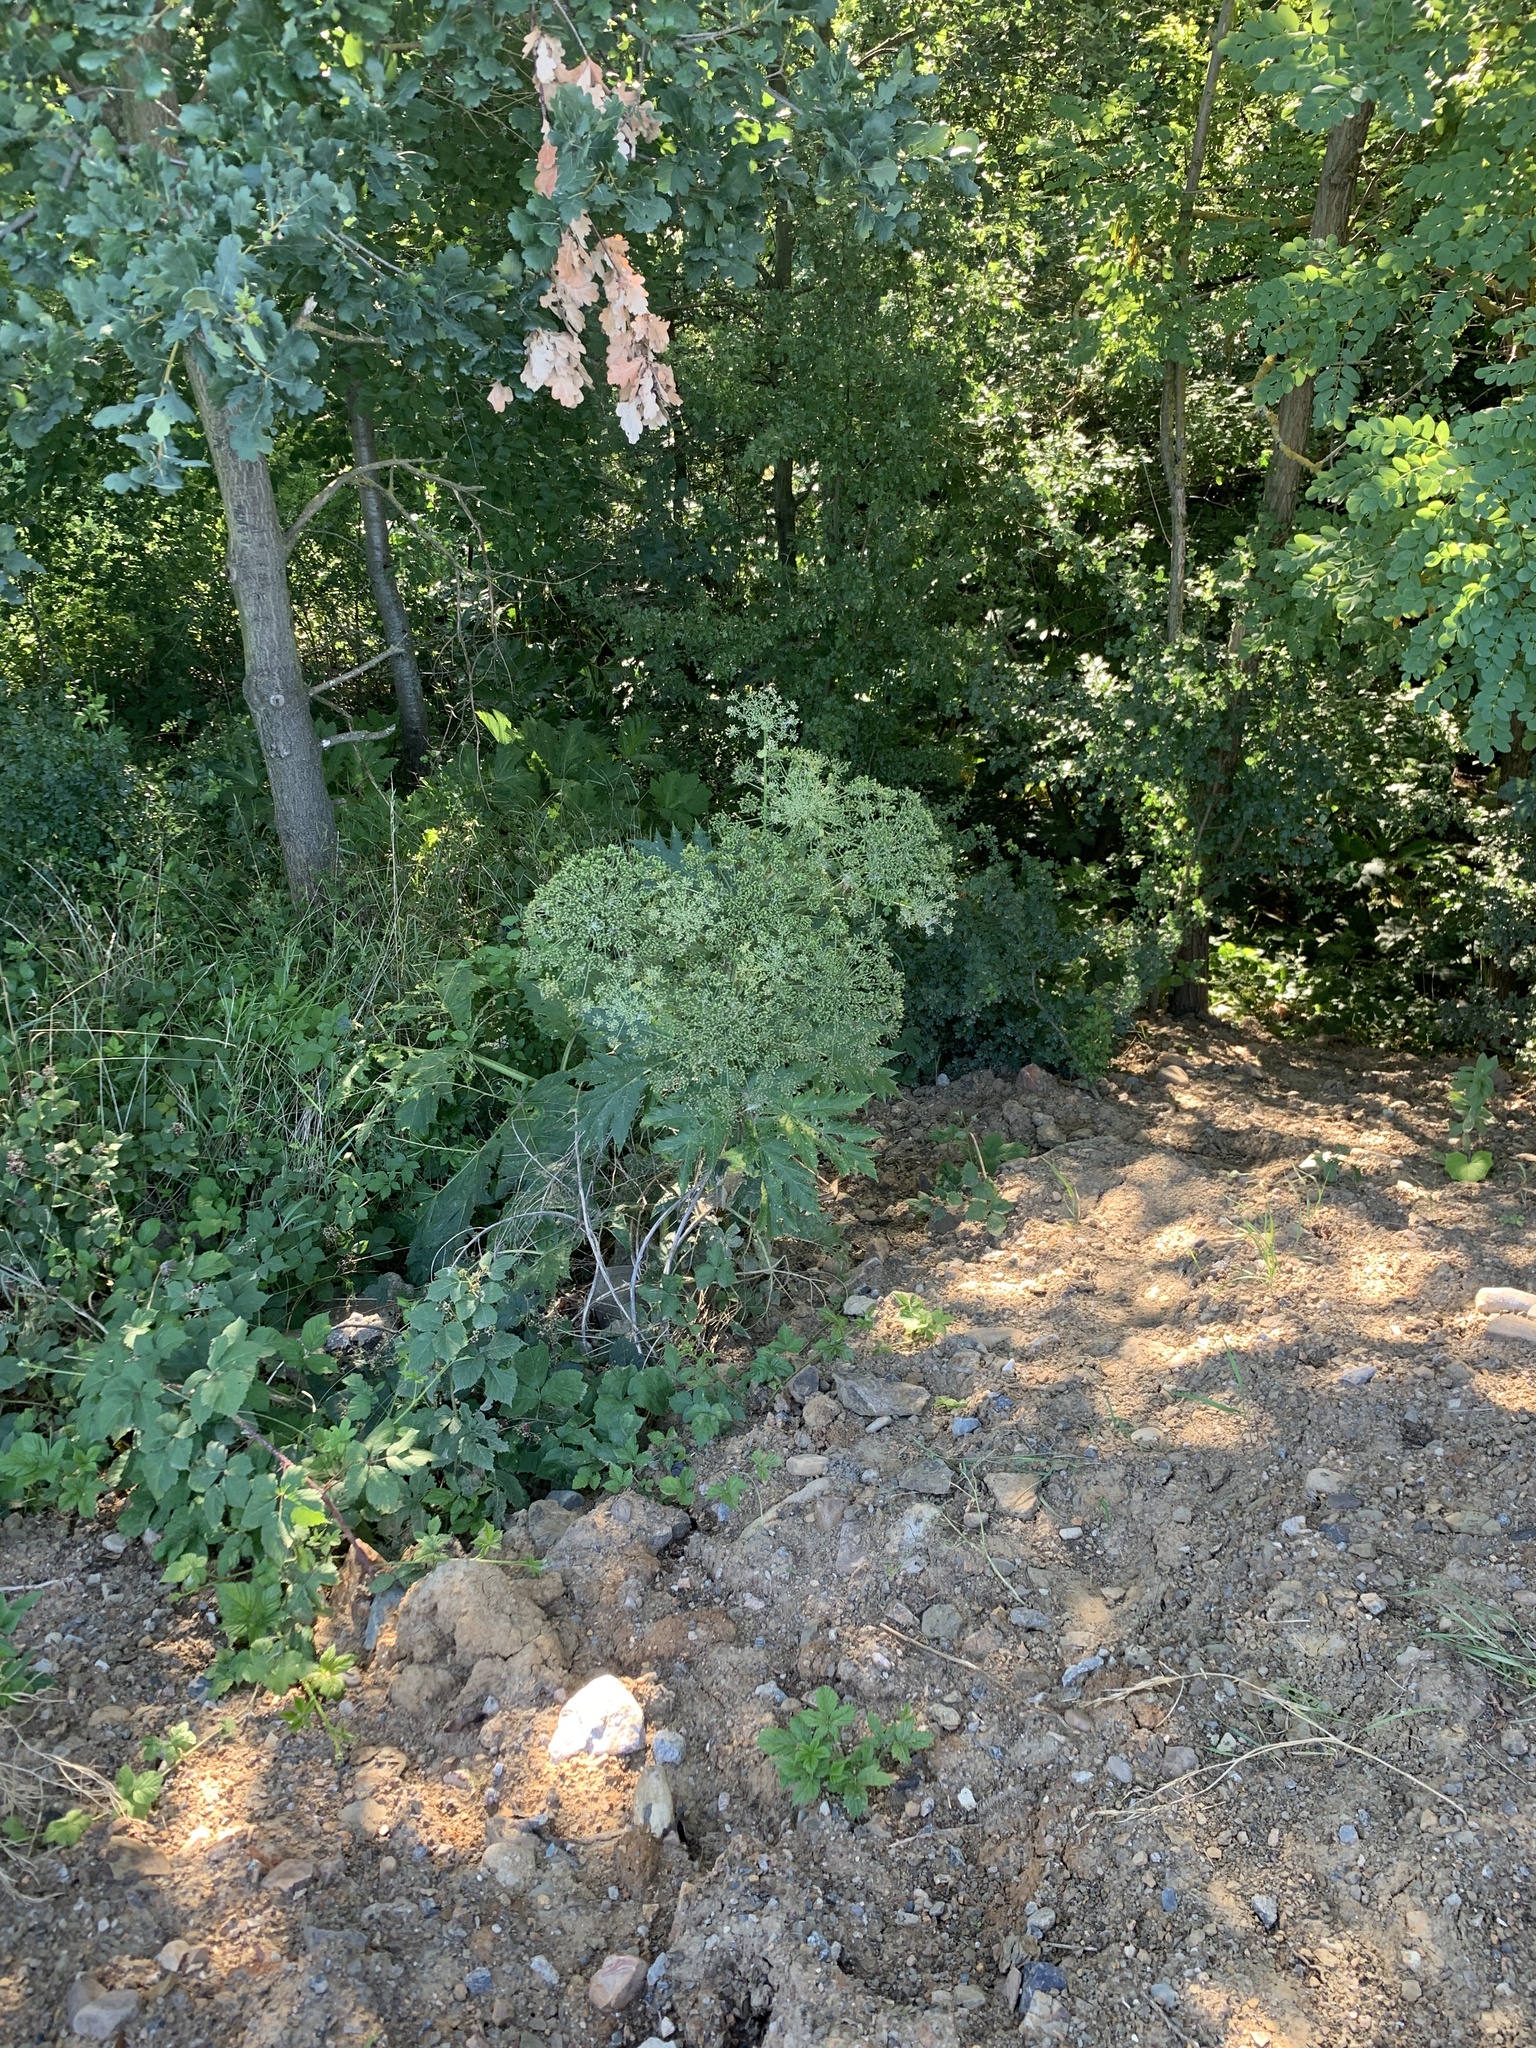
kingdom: Plantae
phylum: Tracheophyta
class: Magnoliopsida
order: Apiales
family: Apiaceae
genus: Heracleum
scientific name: Heracleum mantegazzianum
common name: Giant hogweed
